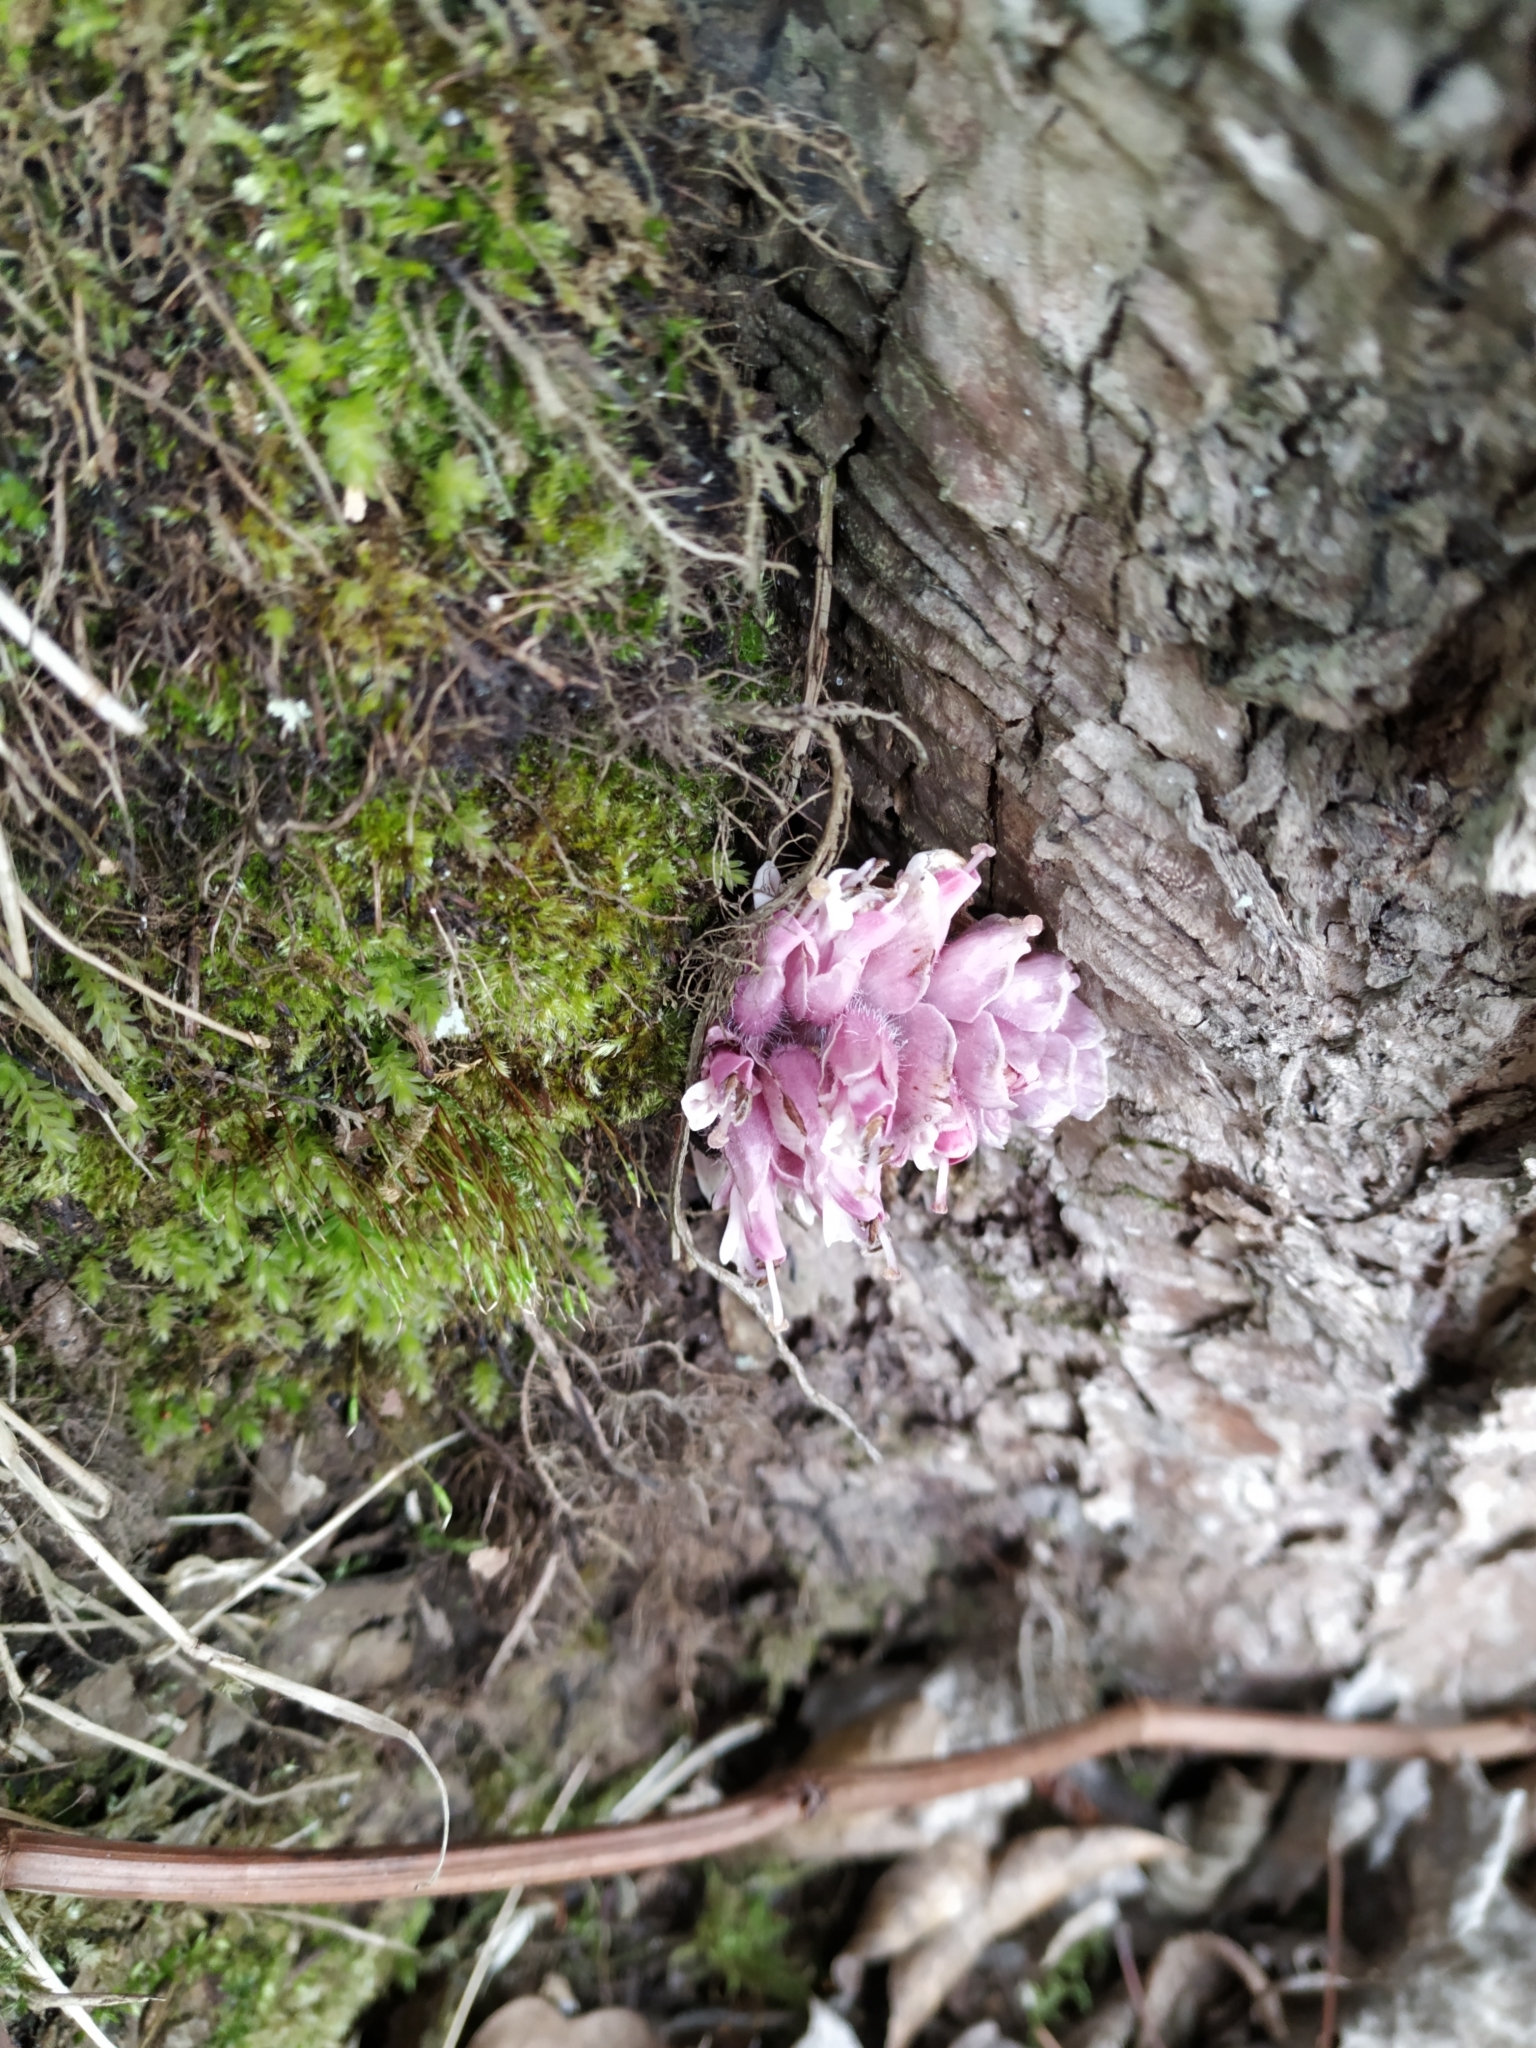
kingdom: Plantae
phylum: Tracheophyta
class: Magnoliopsida
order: Lamiales
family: Orobanchaceae
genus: Lathraea
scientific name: Lathraea squamaria
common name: Toothwort
